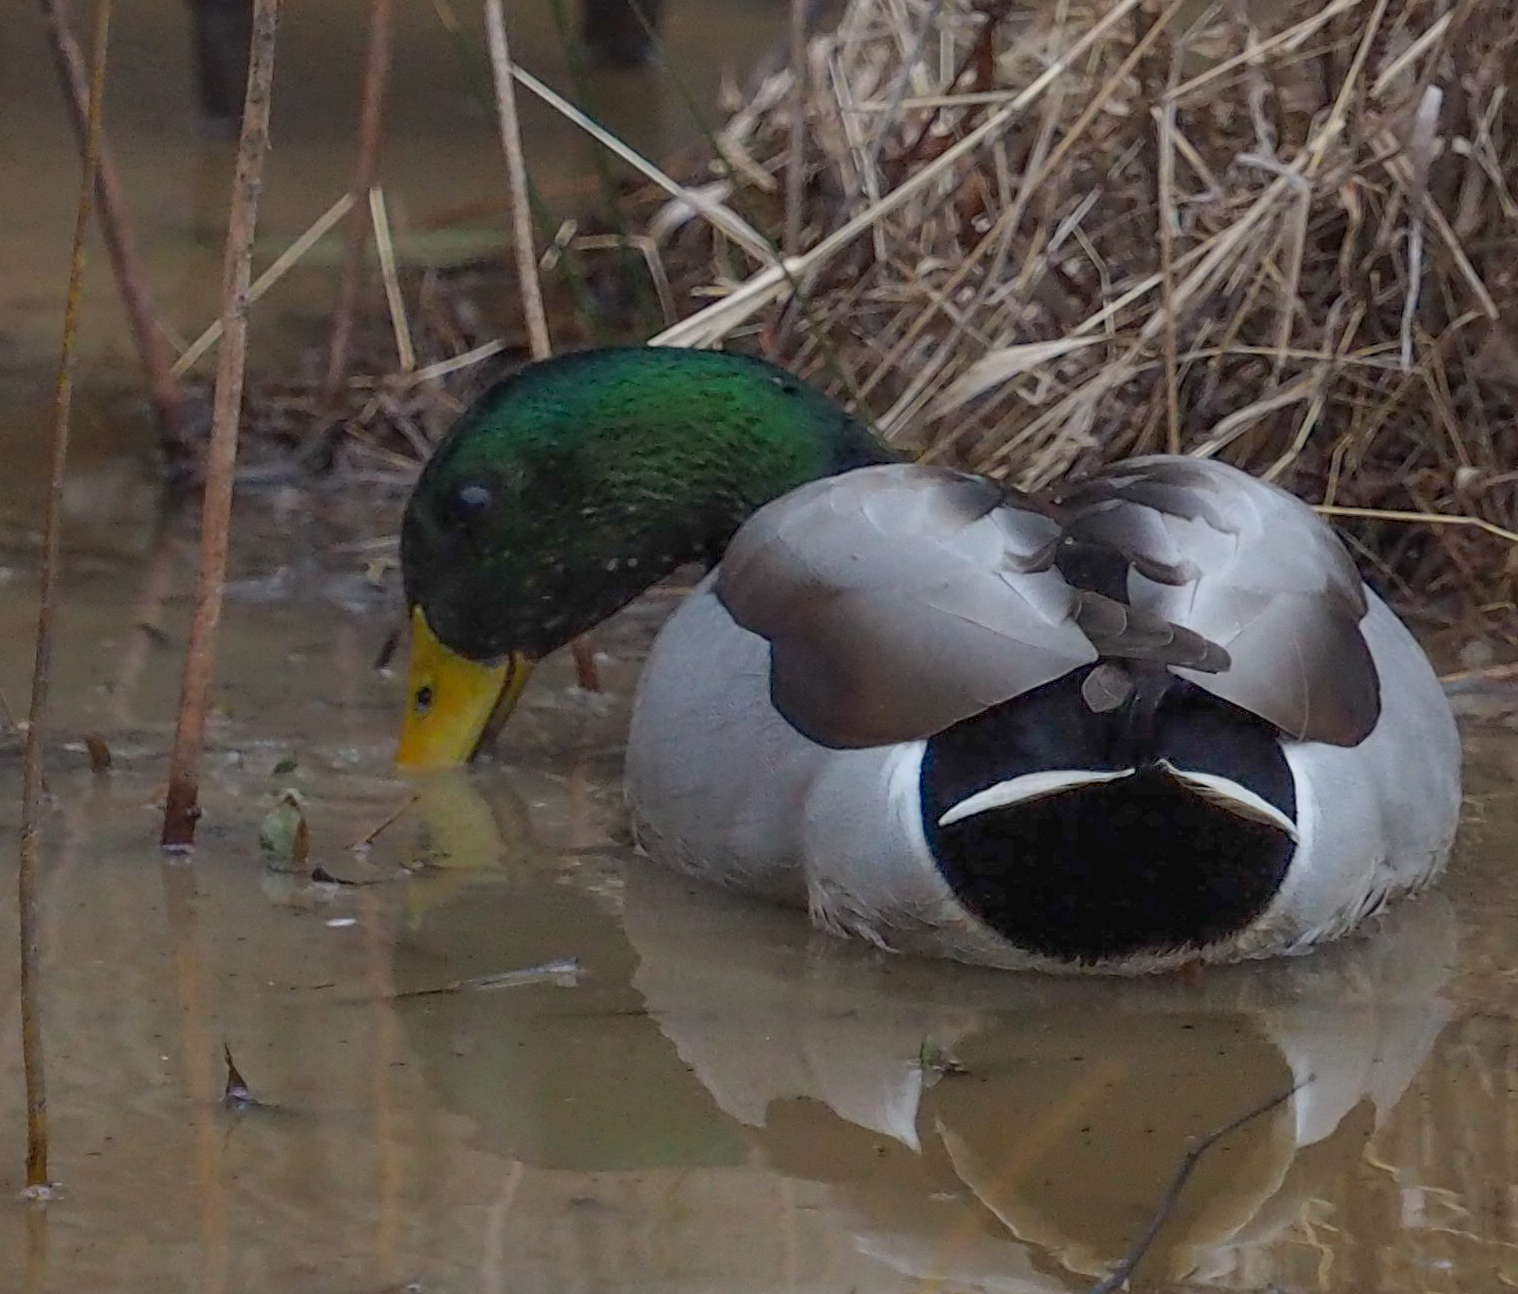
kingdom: Animalia
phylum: Chordata
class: Aves
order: Anseriformes
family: Anatidae
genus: Anas
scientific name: Anas platyrhynchos
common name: Mallard
